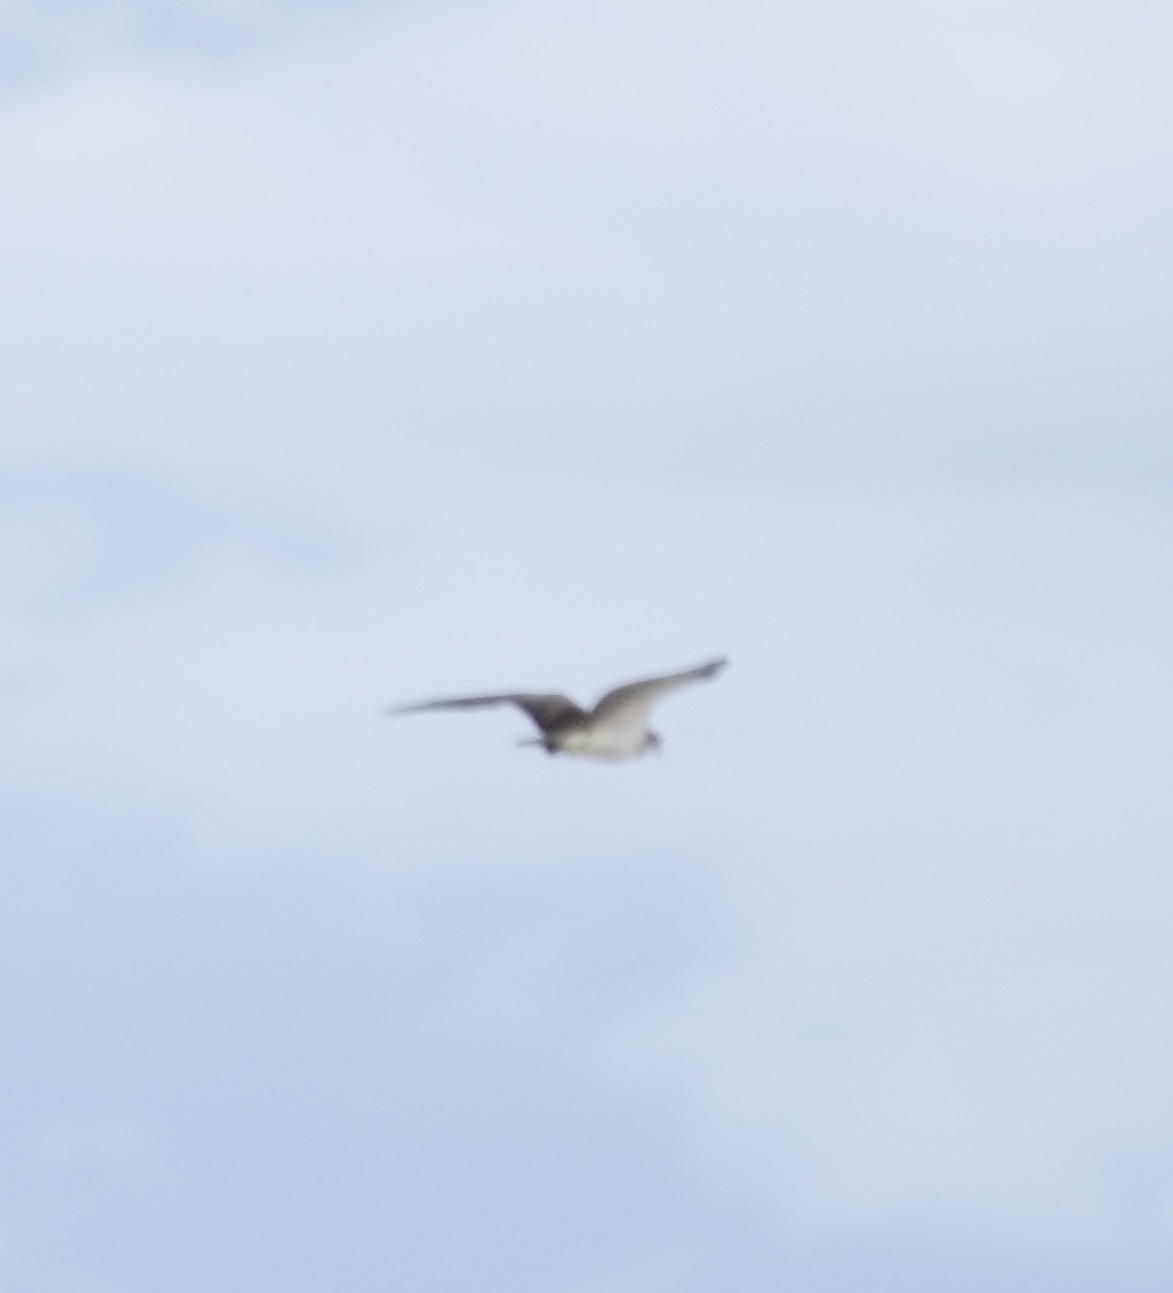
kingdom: Animalia
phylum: Chordata
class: Aves
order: Accipitriformes
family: Pandionidae
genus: Pandion
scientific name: Pandion haliaetus
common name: Osprey
